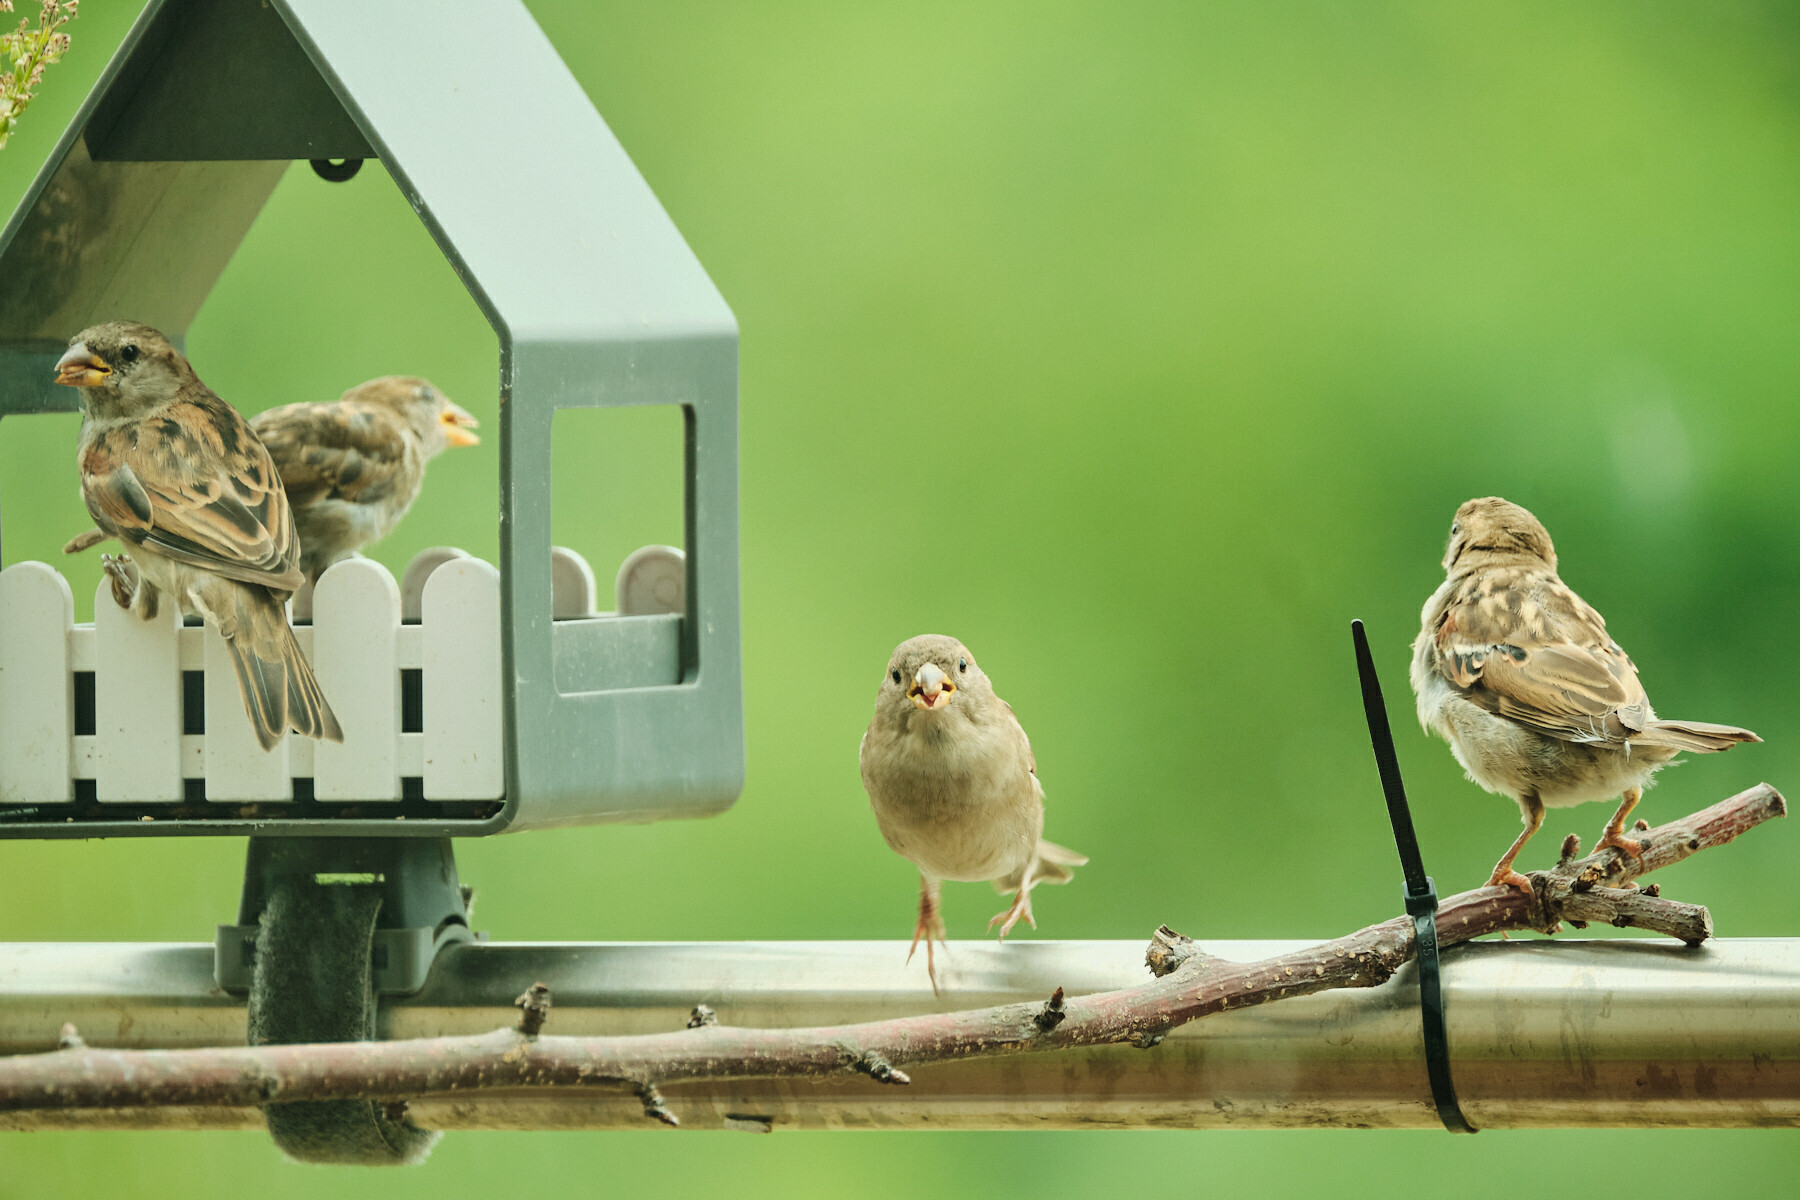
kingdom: Animalia
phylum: Chordata
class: Aves
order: Passeriformes
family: Passeridae
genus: Passer
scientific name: Passer domesticus
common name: House sparrow
